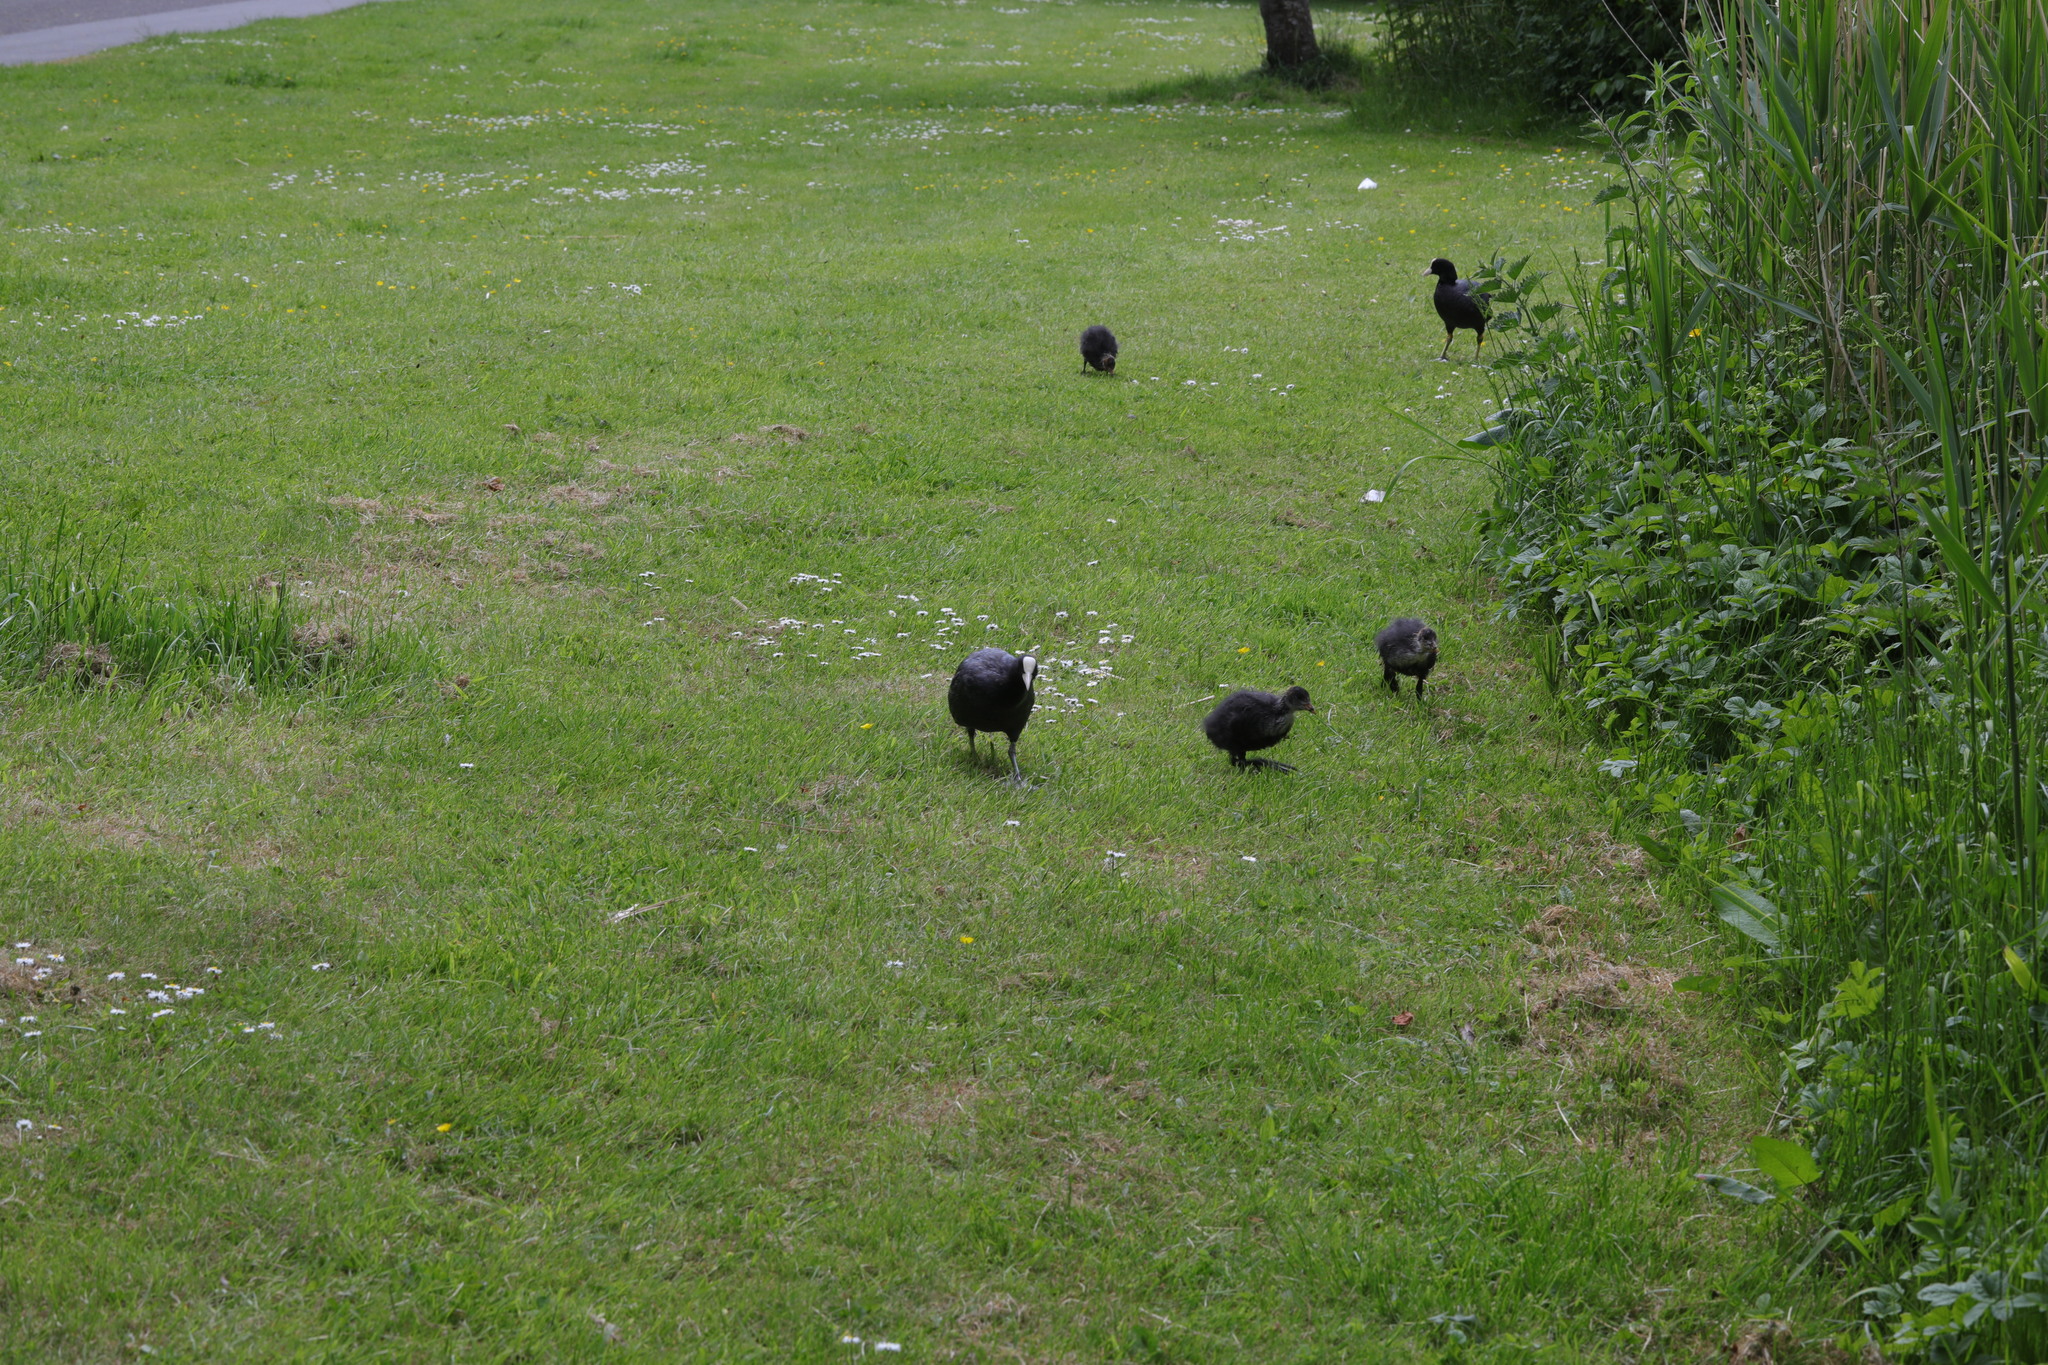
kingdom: Animalia
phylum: Chordata
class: Aves
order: Gruiformes
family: Rallidae
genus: Fulica
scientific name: Fulica atra
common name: Eurasian coot
